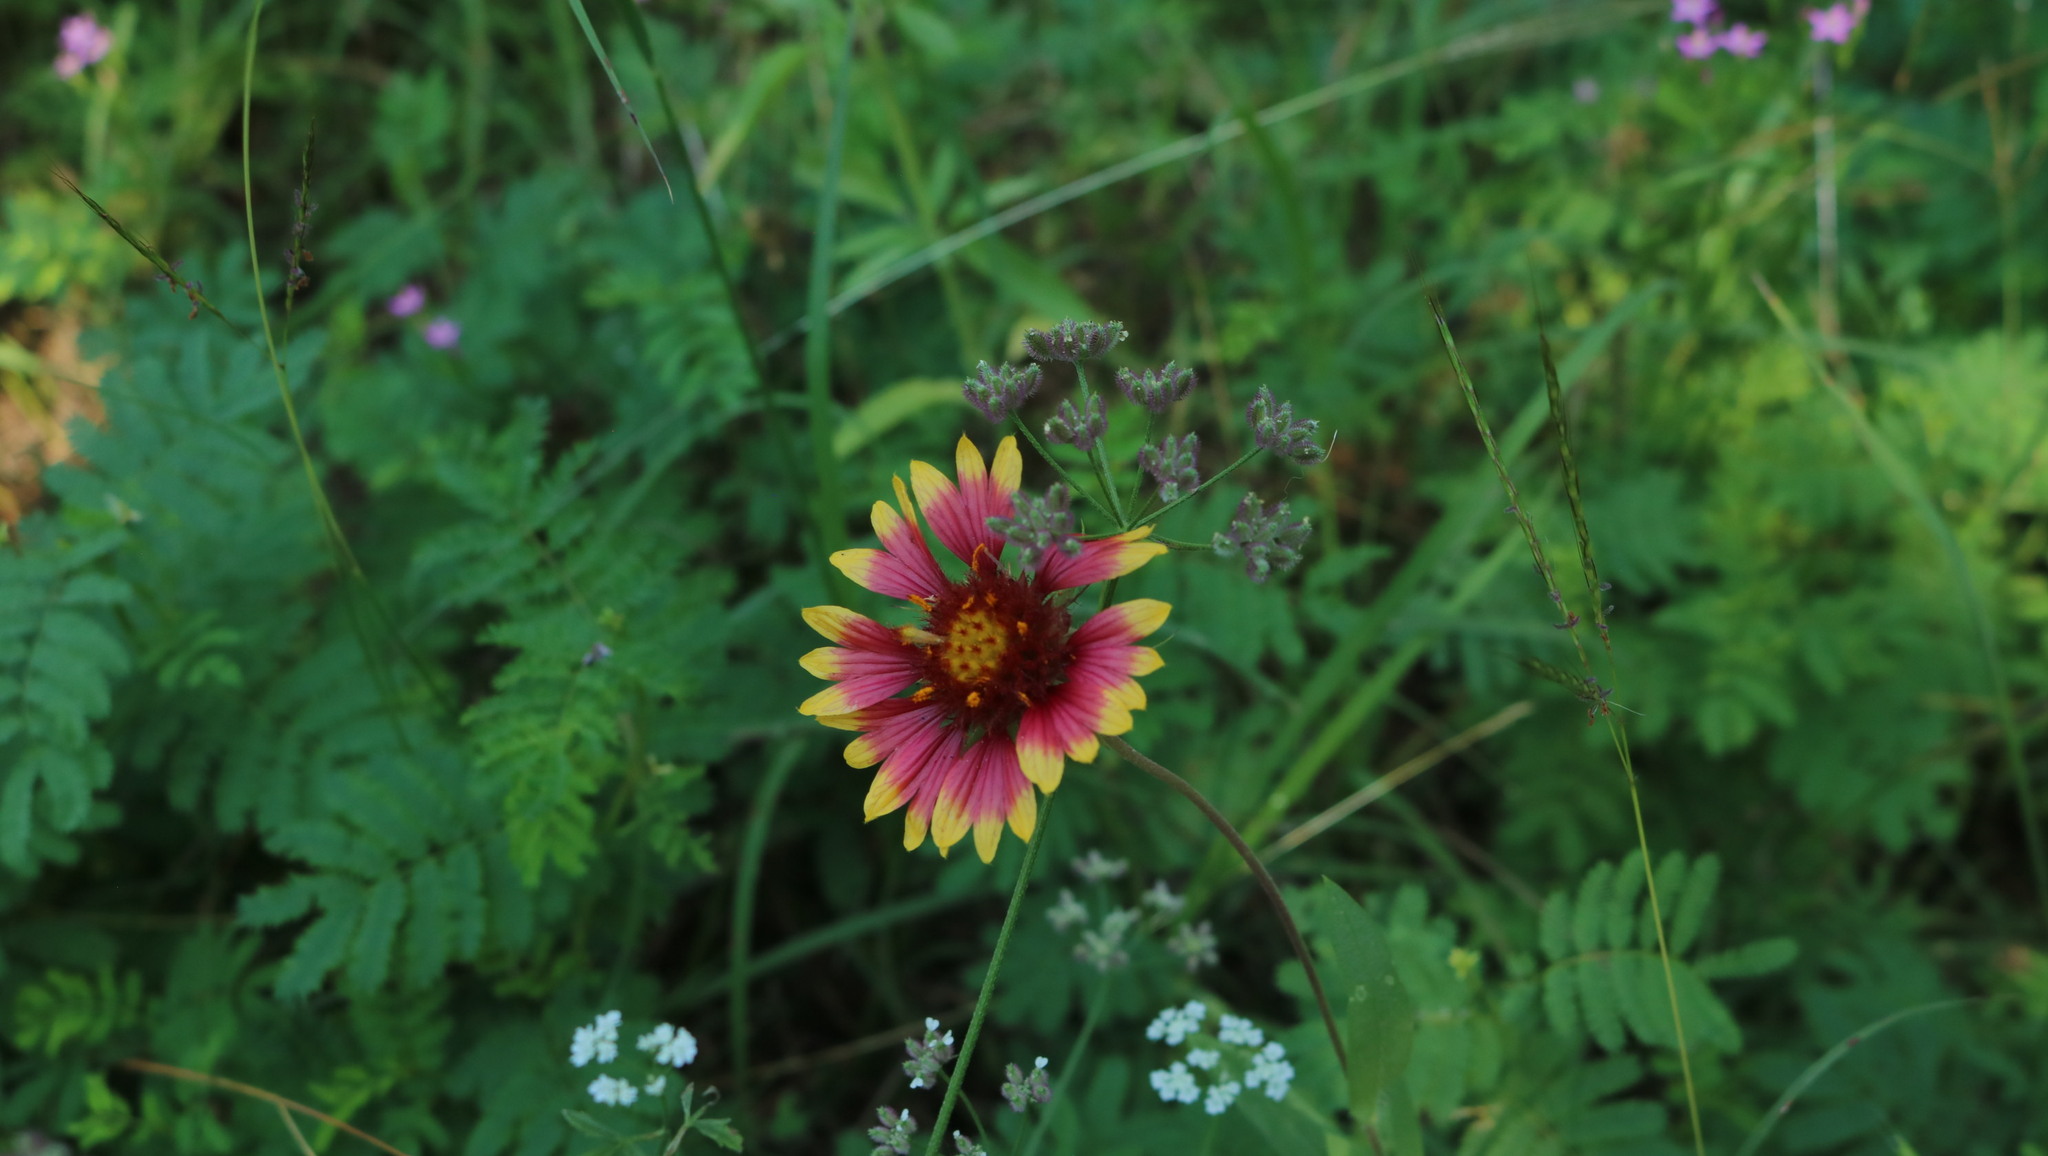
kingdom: Plantae
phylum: Tracheophyta
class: Magnoliopsida
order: Asterales
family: Asteraceae
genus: Gaillardia
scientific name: Gaillardia pulchella
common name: Firewheel
